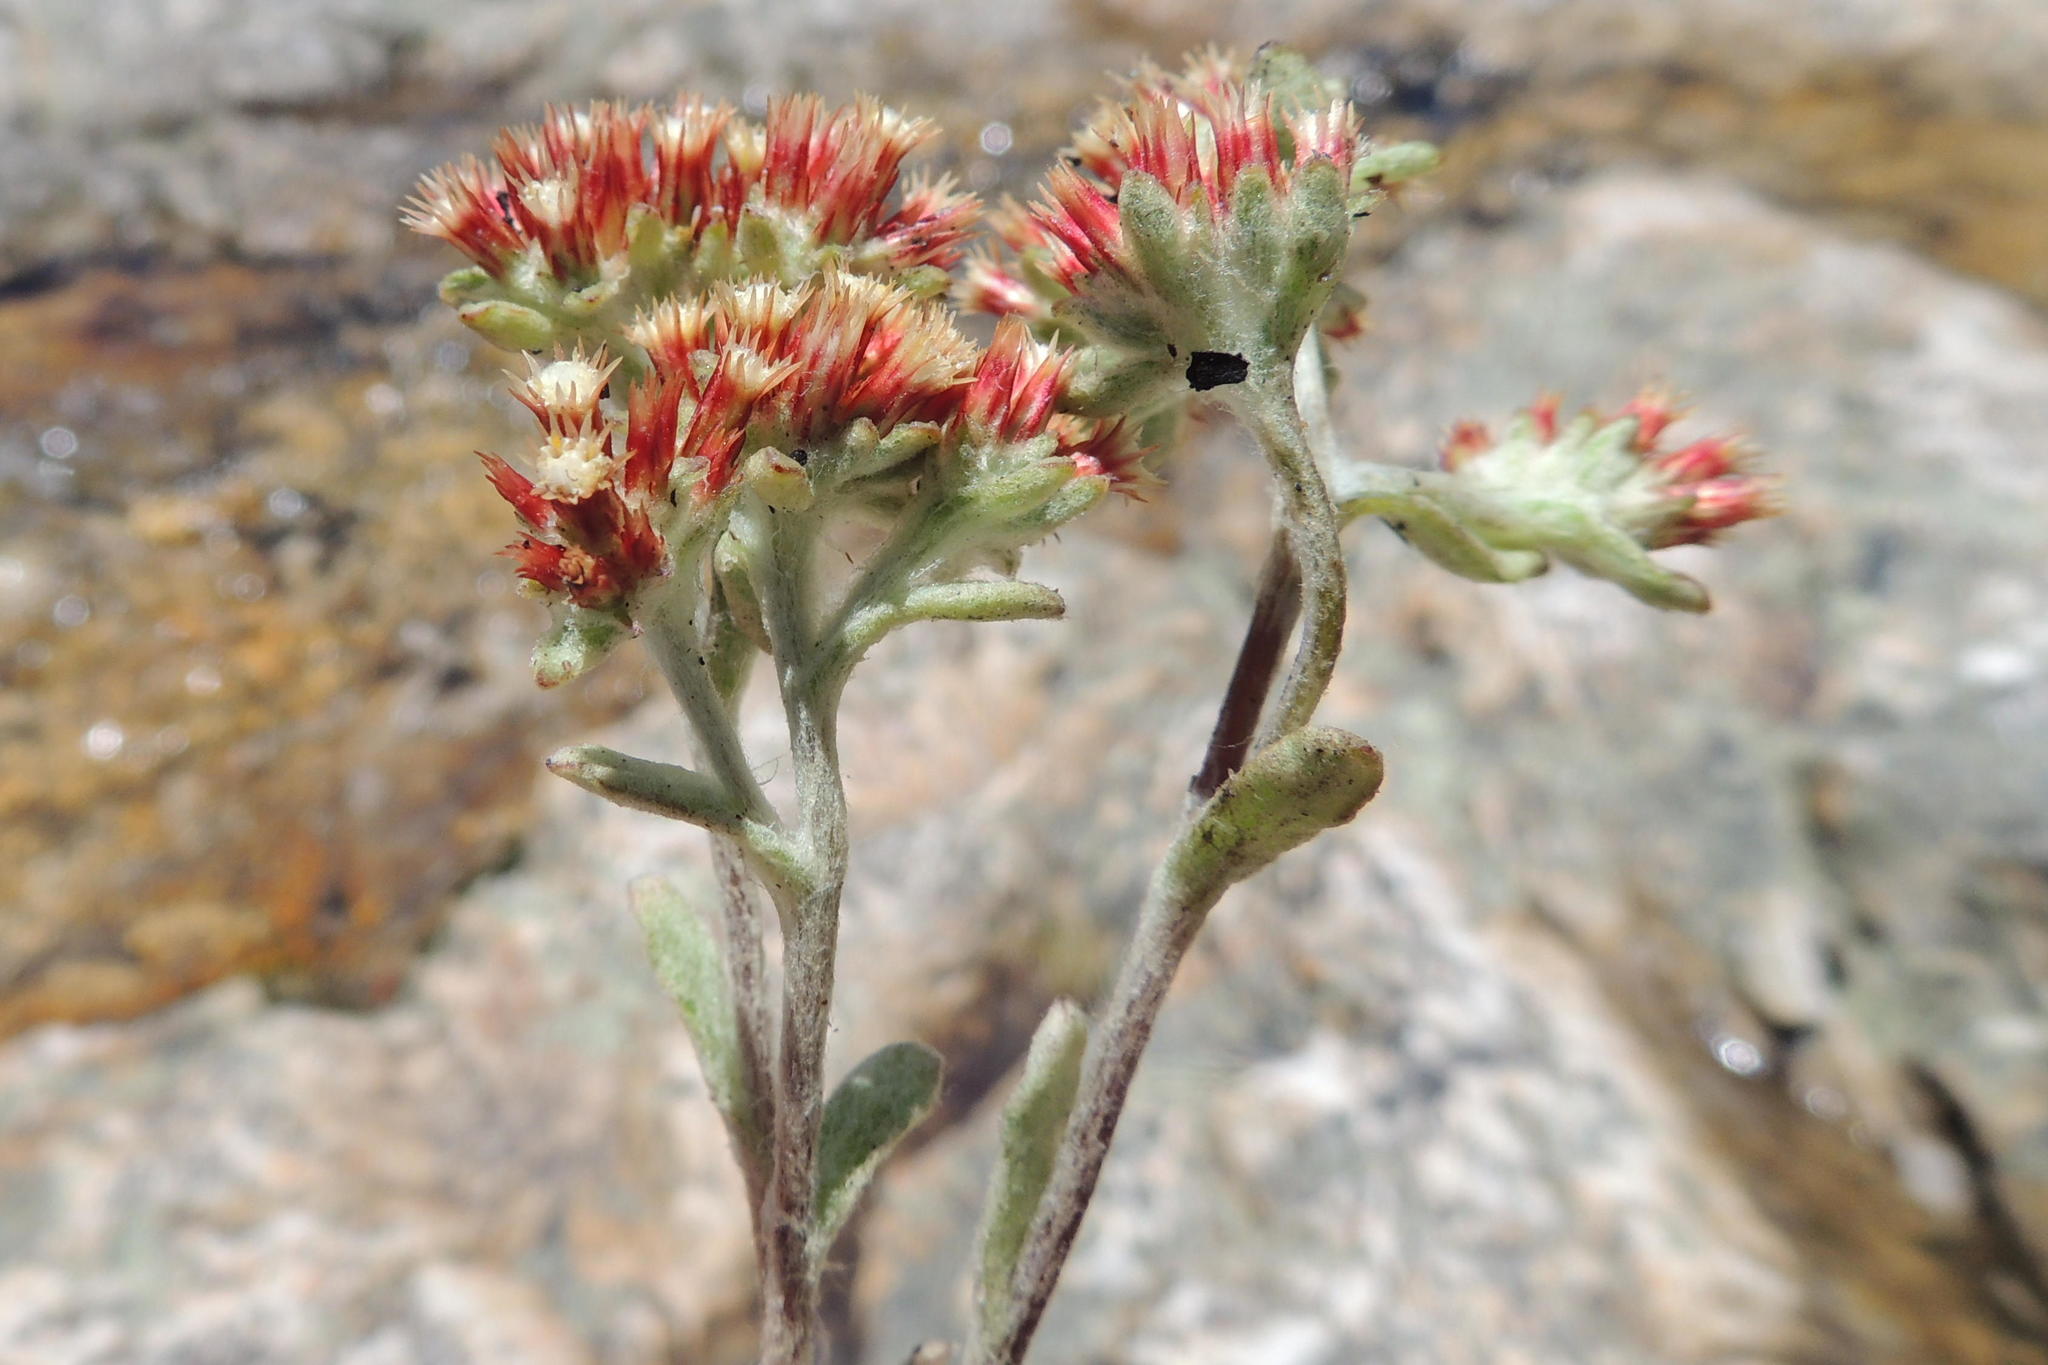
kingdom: Plantae
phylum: Tracheophyta
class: Magnoliopsida
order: Asterales
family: Asteraceae
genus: Helichrysum
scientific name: Helichrysum spiralepis
